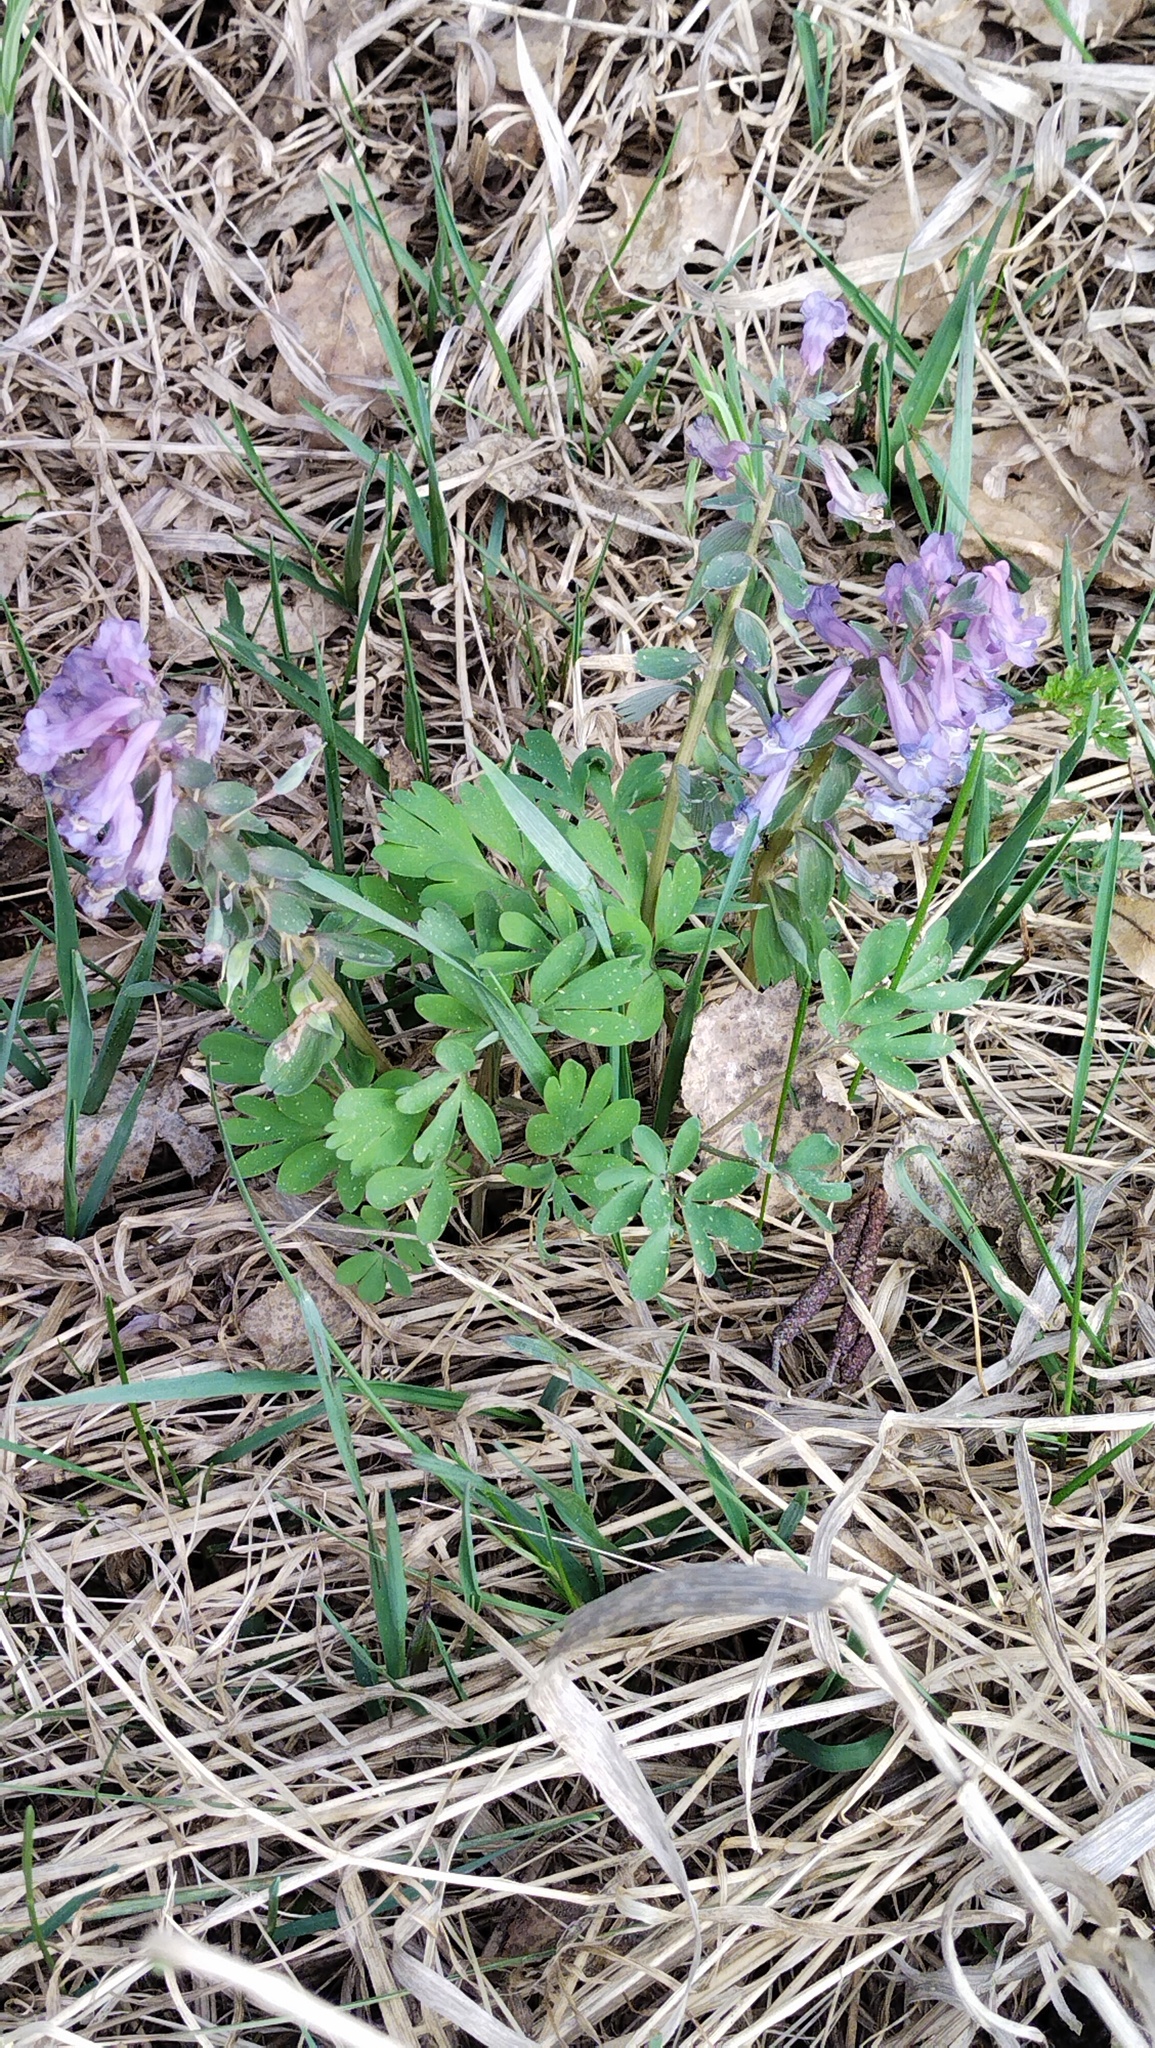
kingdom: Plantae
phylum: Tracheophyta
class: Magnoliopsida
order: Ranunculales
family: Papaveraceae
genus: Corydalis
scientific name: Corydalis solida
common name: Bird-in-a-bush
